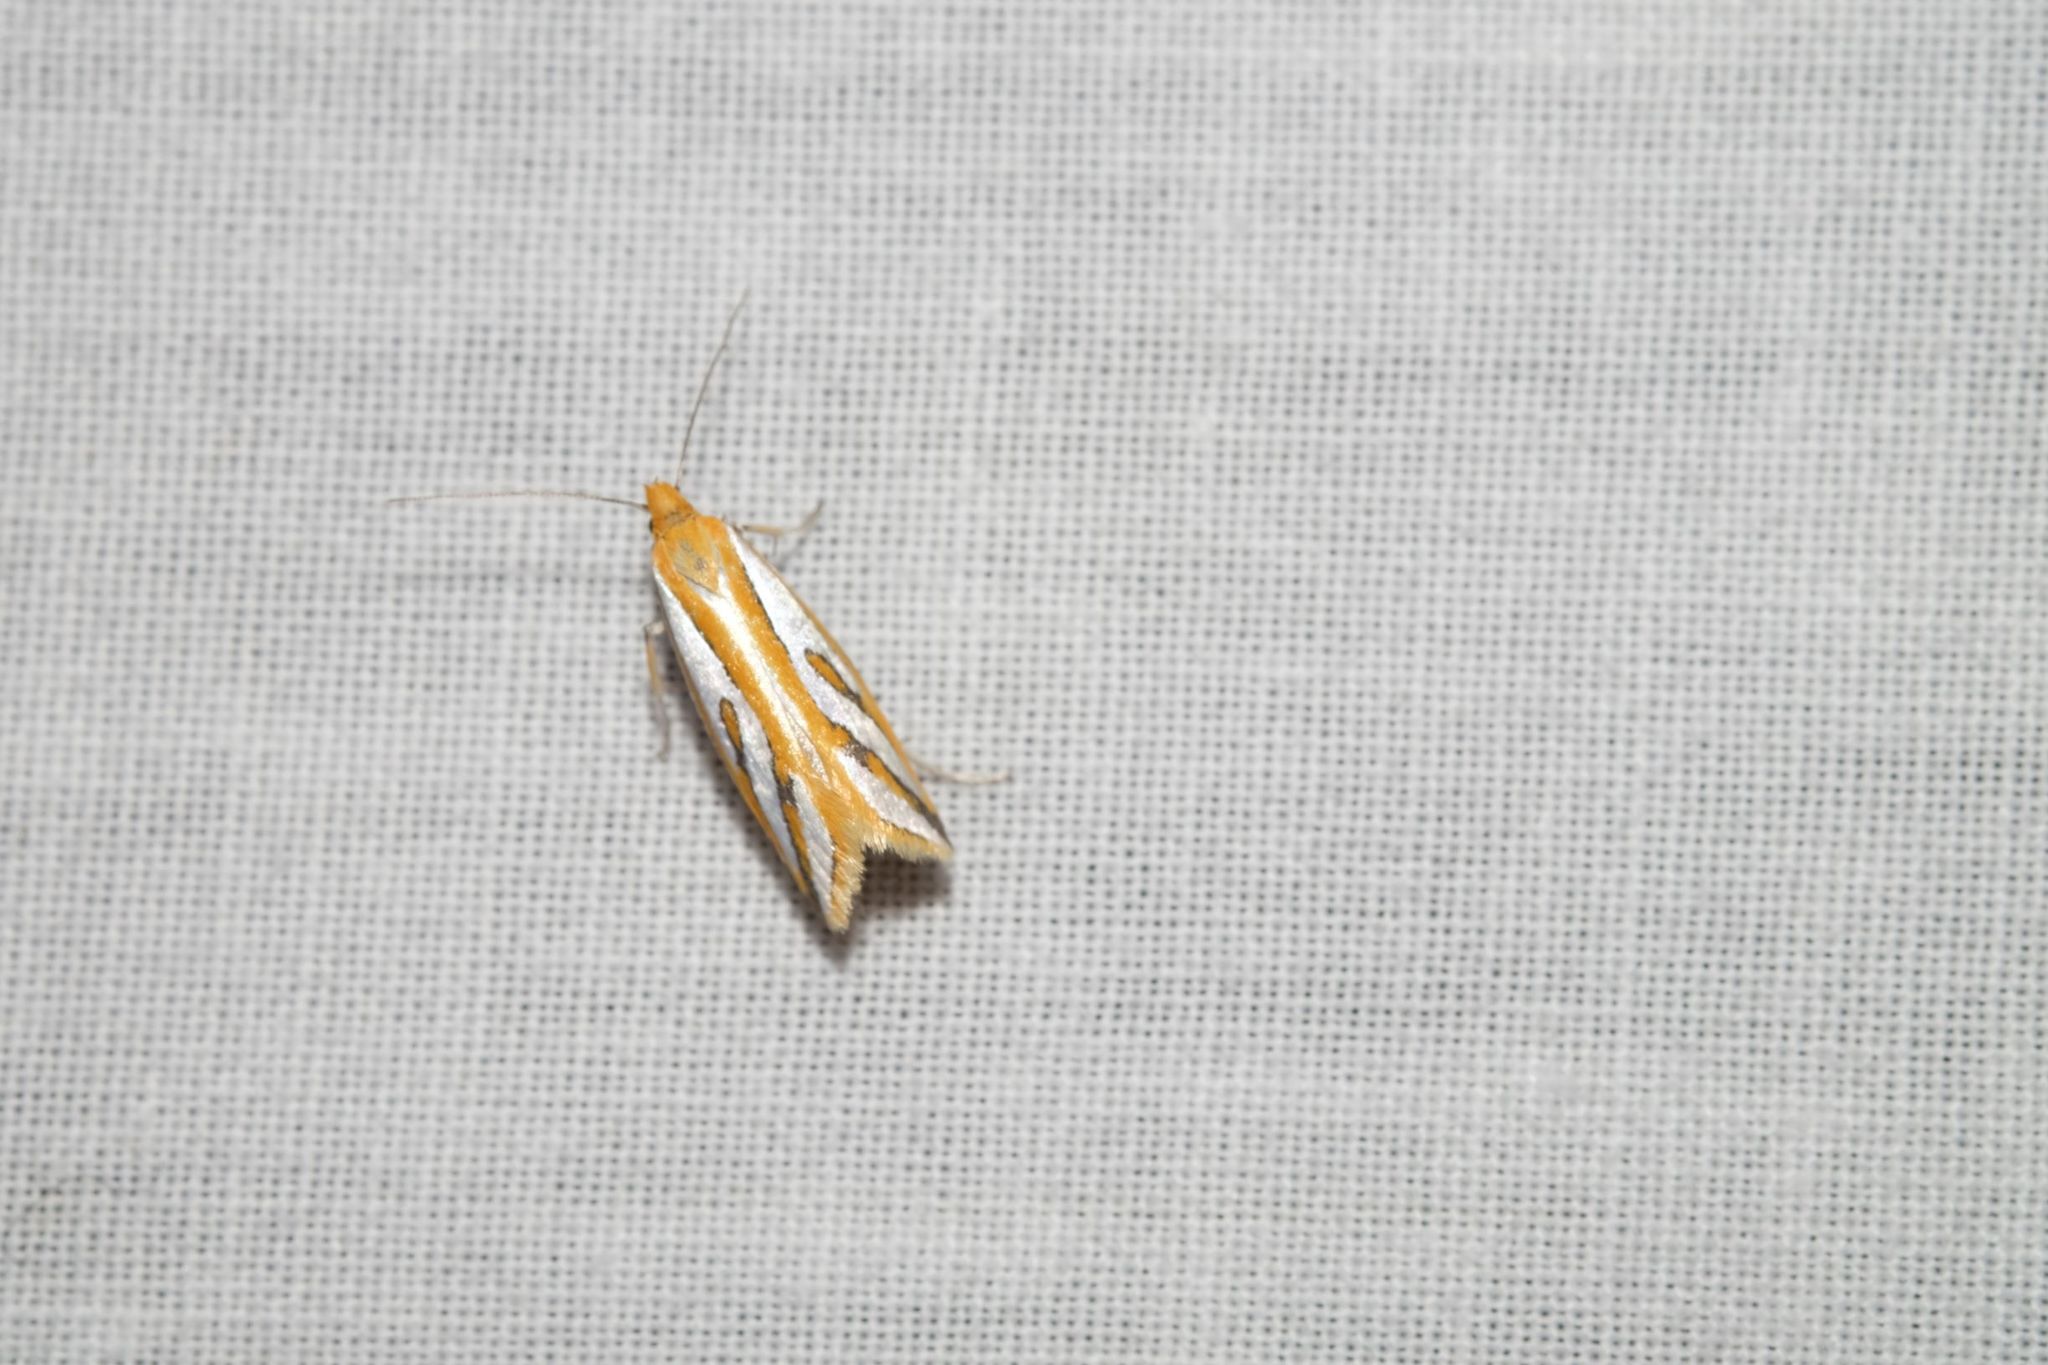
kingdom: Animalia
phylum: Arthropoda
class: Insecta
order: Lepidoptera
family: Depressariidae
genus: Thudaca
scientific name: Thudaca haplonota
